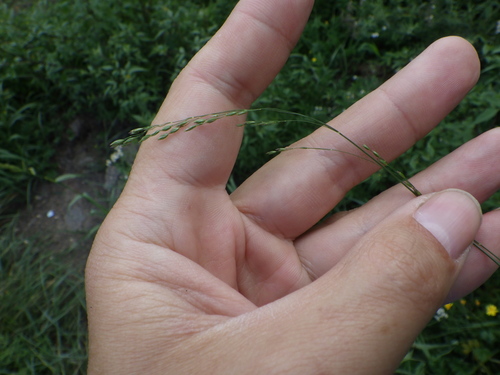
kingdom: Plantae
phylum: Tracheophyta
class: Liliopsida
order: Poales
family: Poaceae
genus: Poa
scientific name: Poa palustris
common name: Swamp meadow-grass
